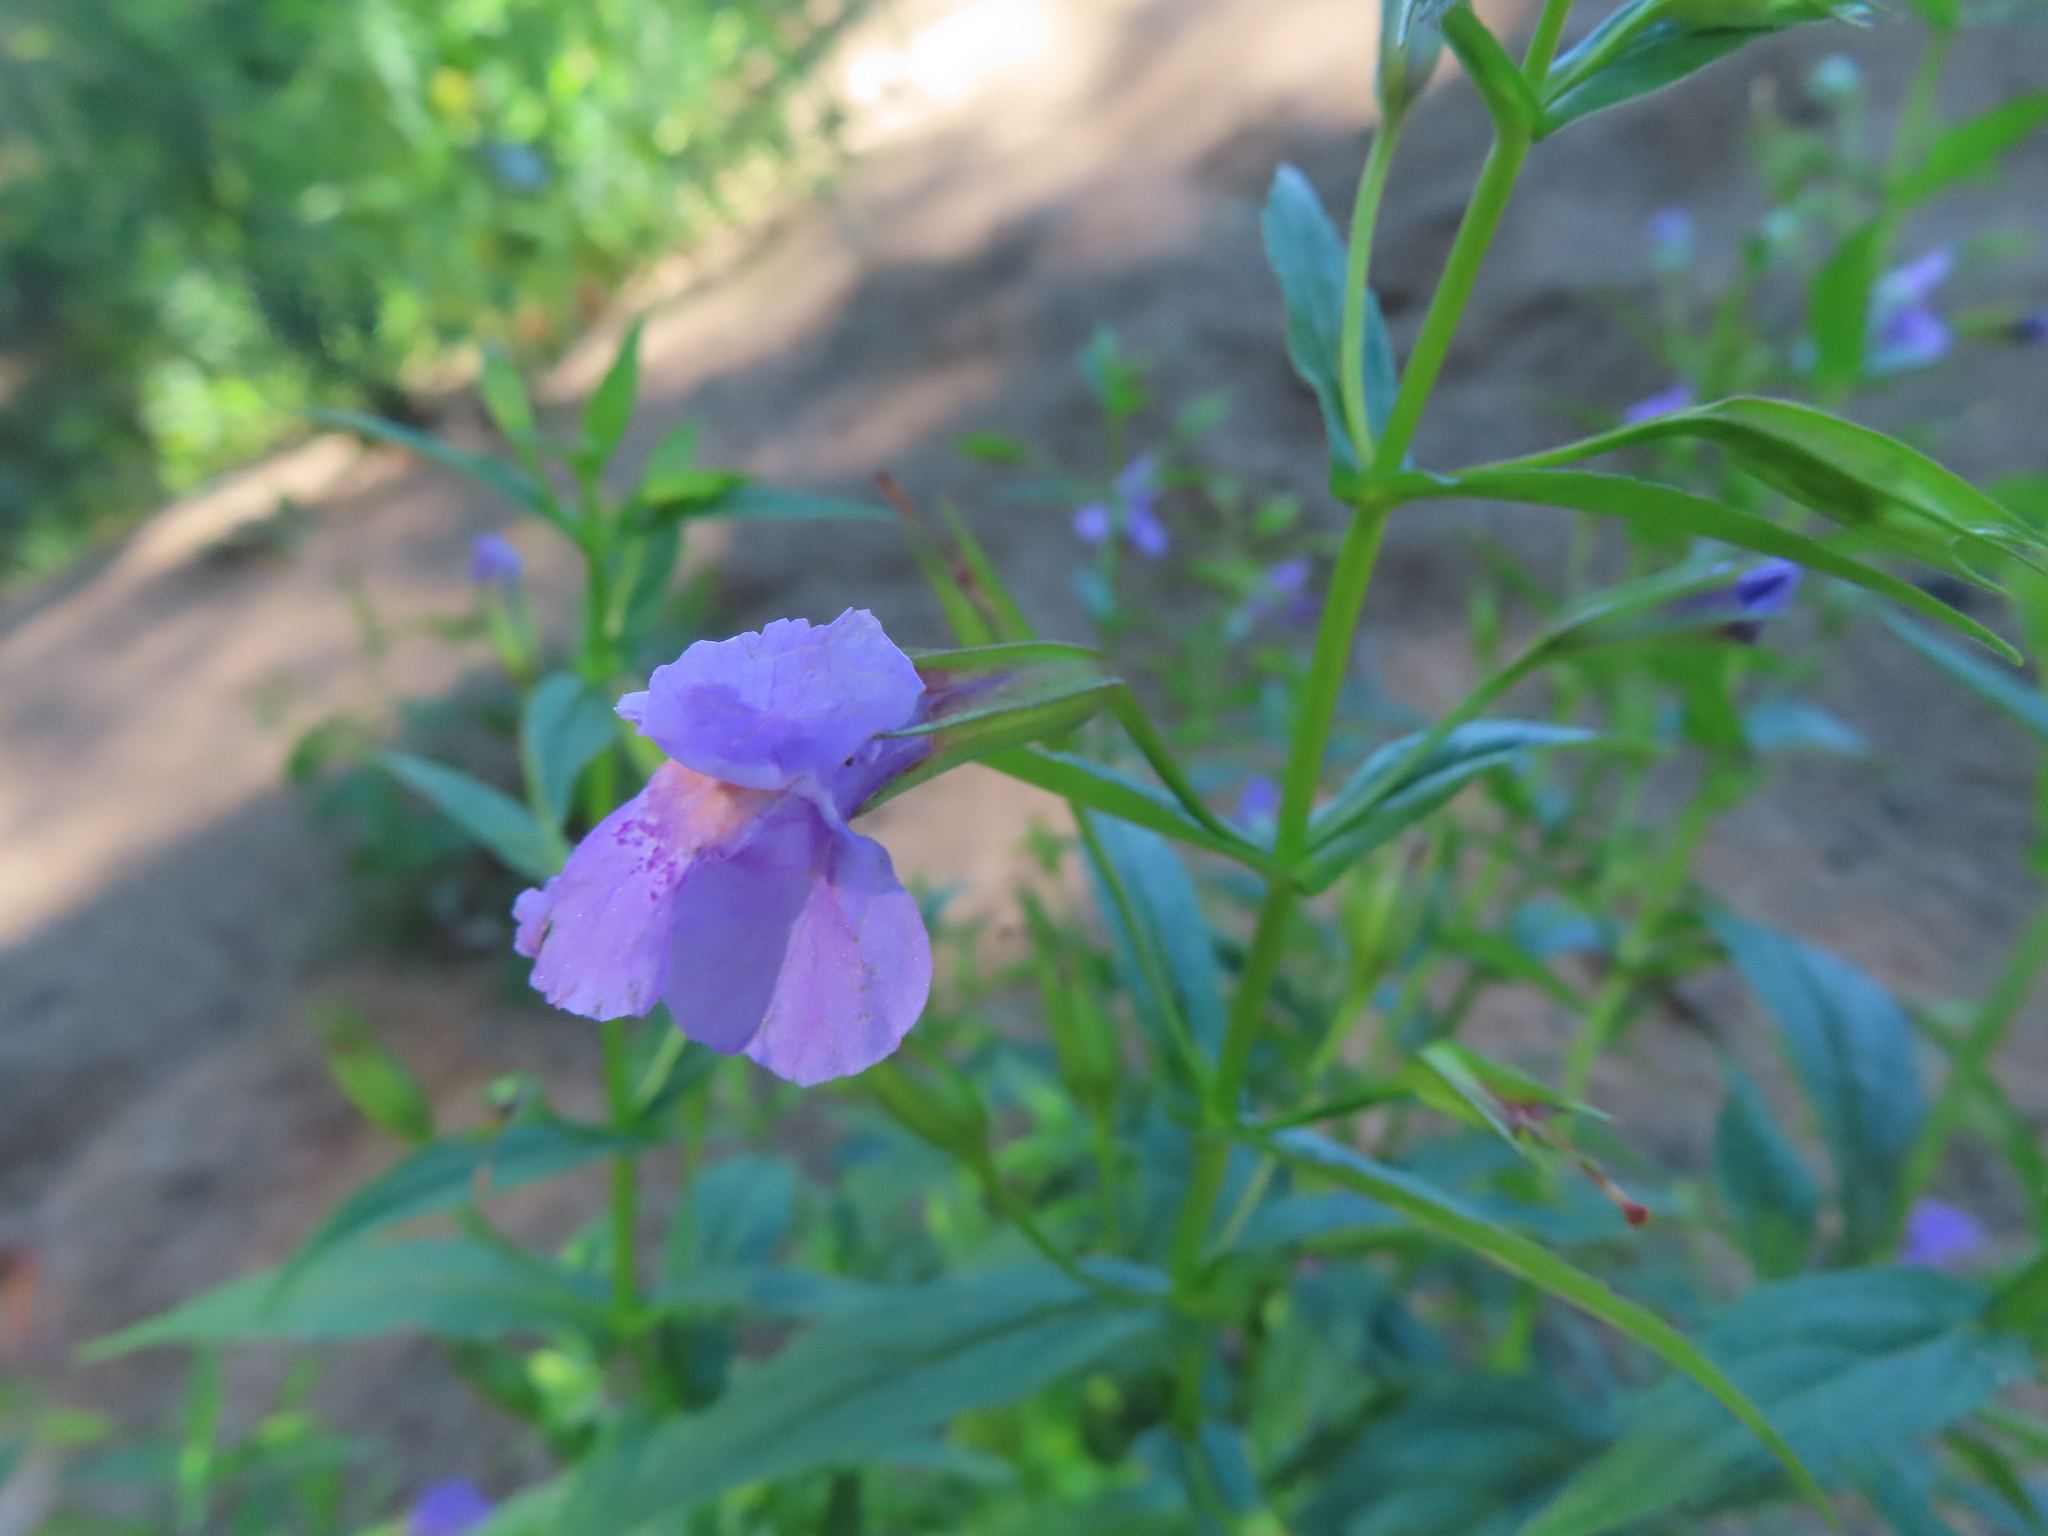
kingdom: Plantae
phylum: Tracheophyta
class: Magnoliopsida
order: Lamiales
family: Phrymaceae
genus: Mimulus
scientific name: Mimulus ringens
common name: Allegheny monkeyflower
